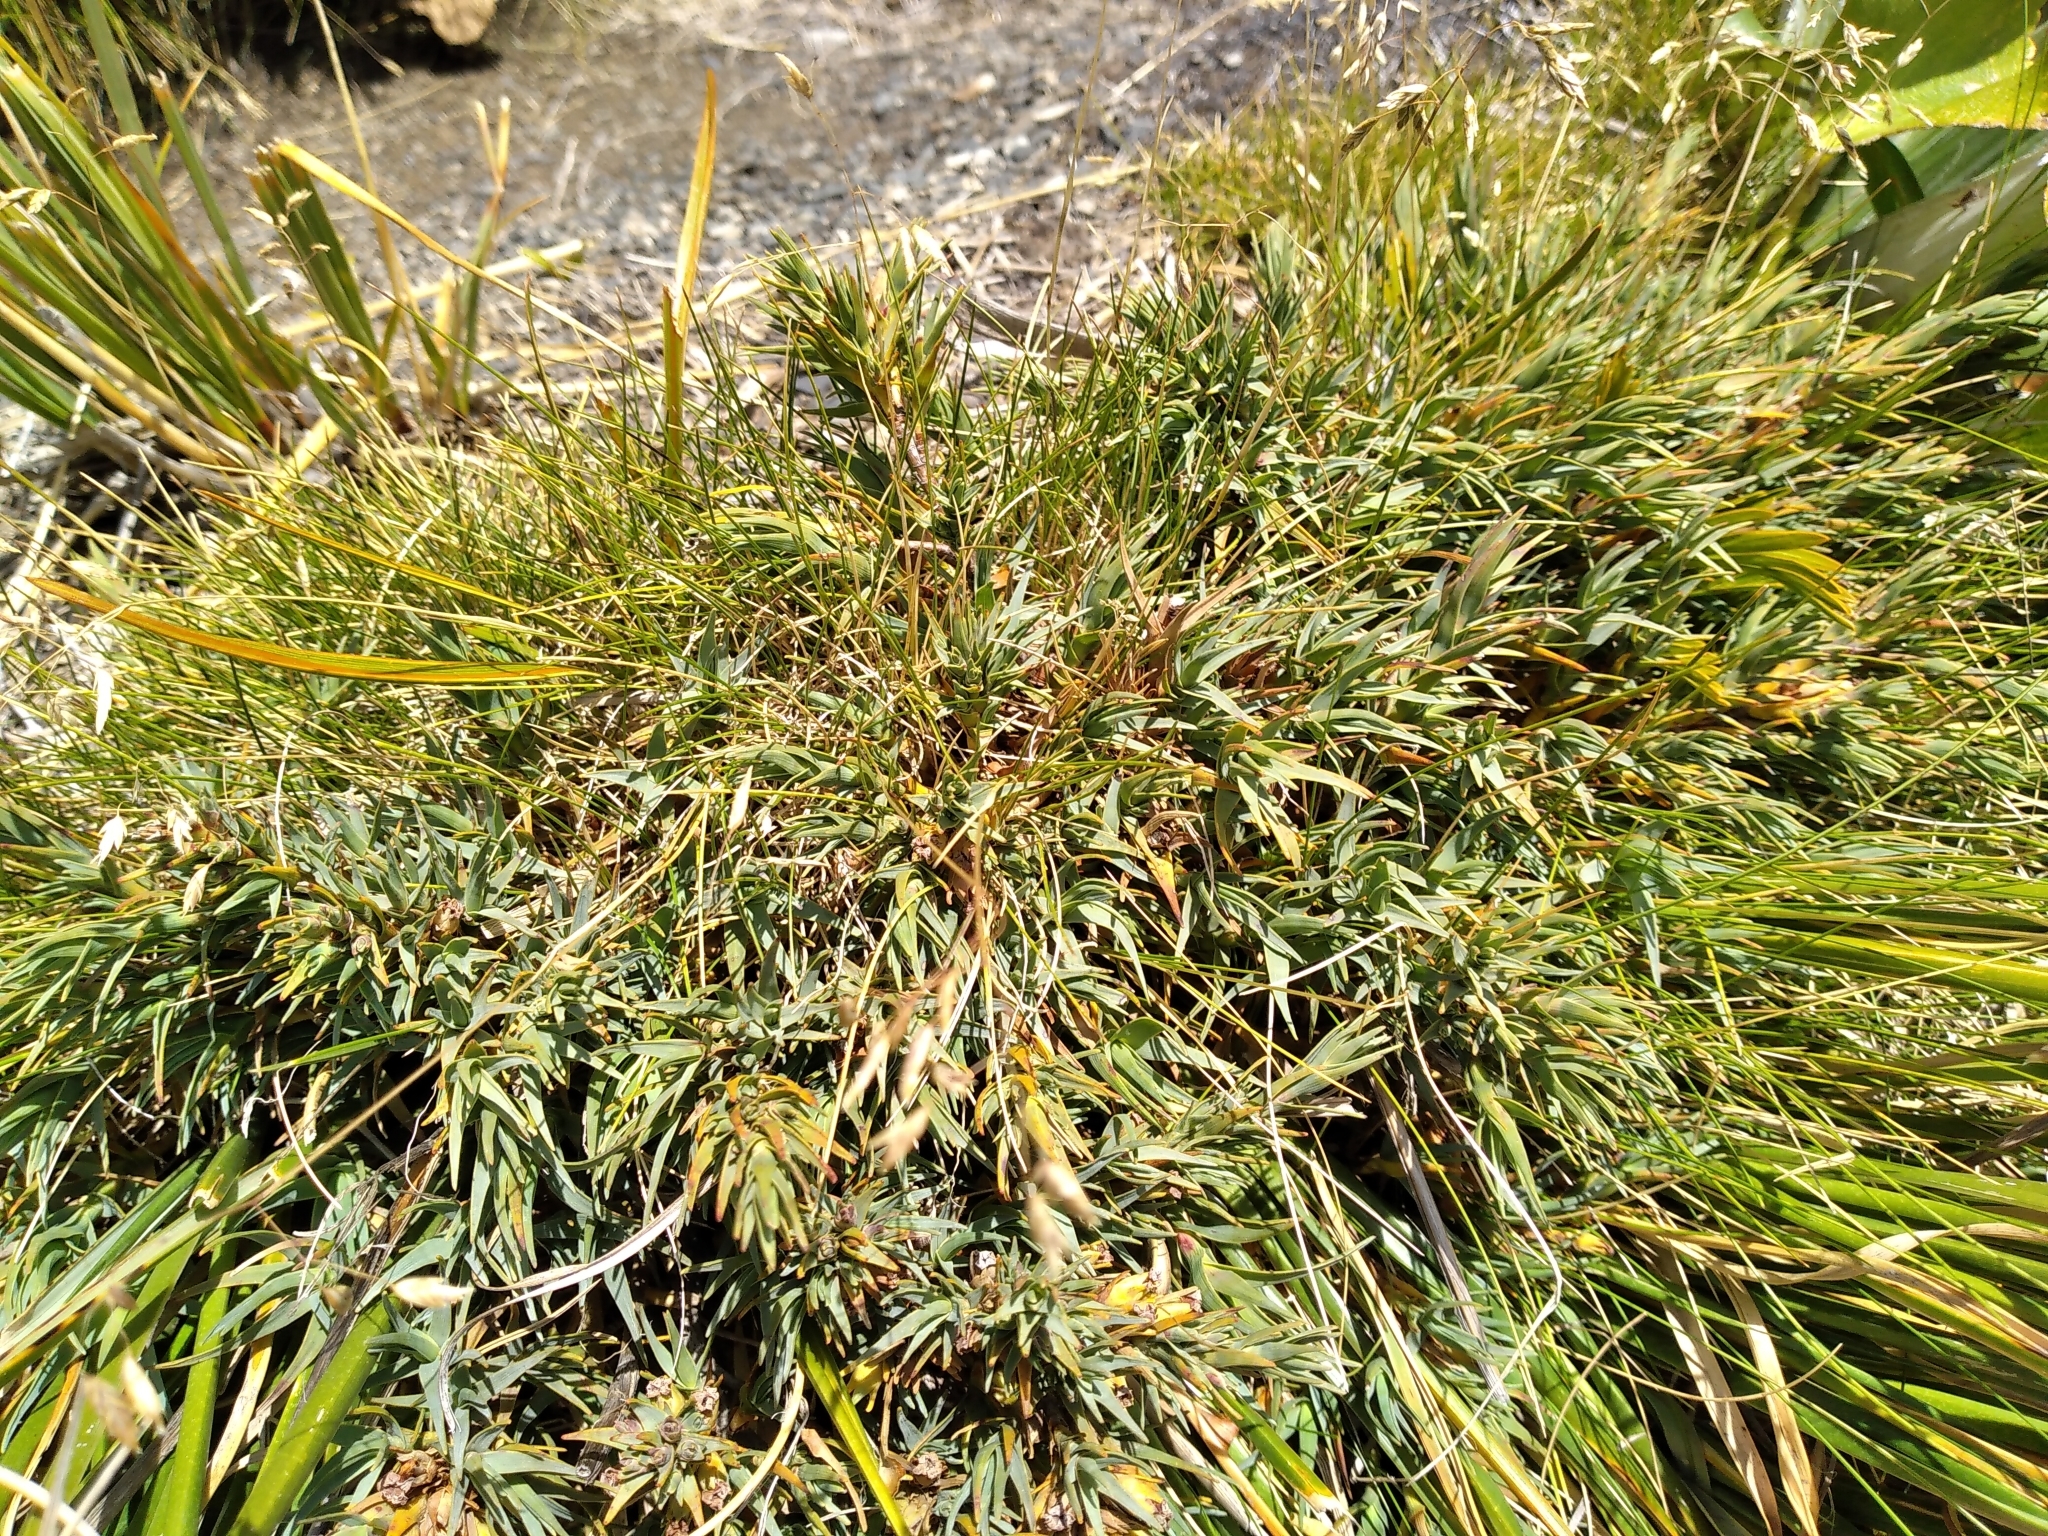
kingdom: Plantae
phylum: Tracheophyta
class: Magnoliopsida
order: Ericales
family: Ericaceae
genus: Dracophyllum
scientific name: Dracophyllum kirkii
